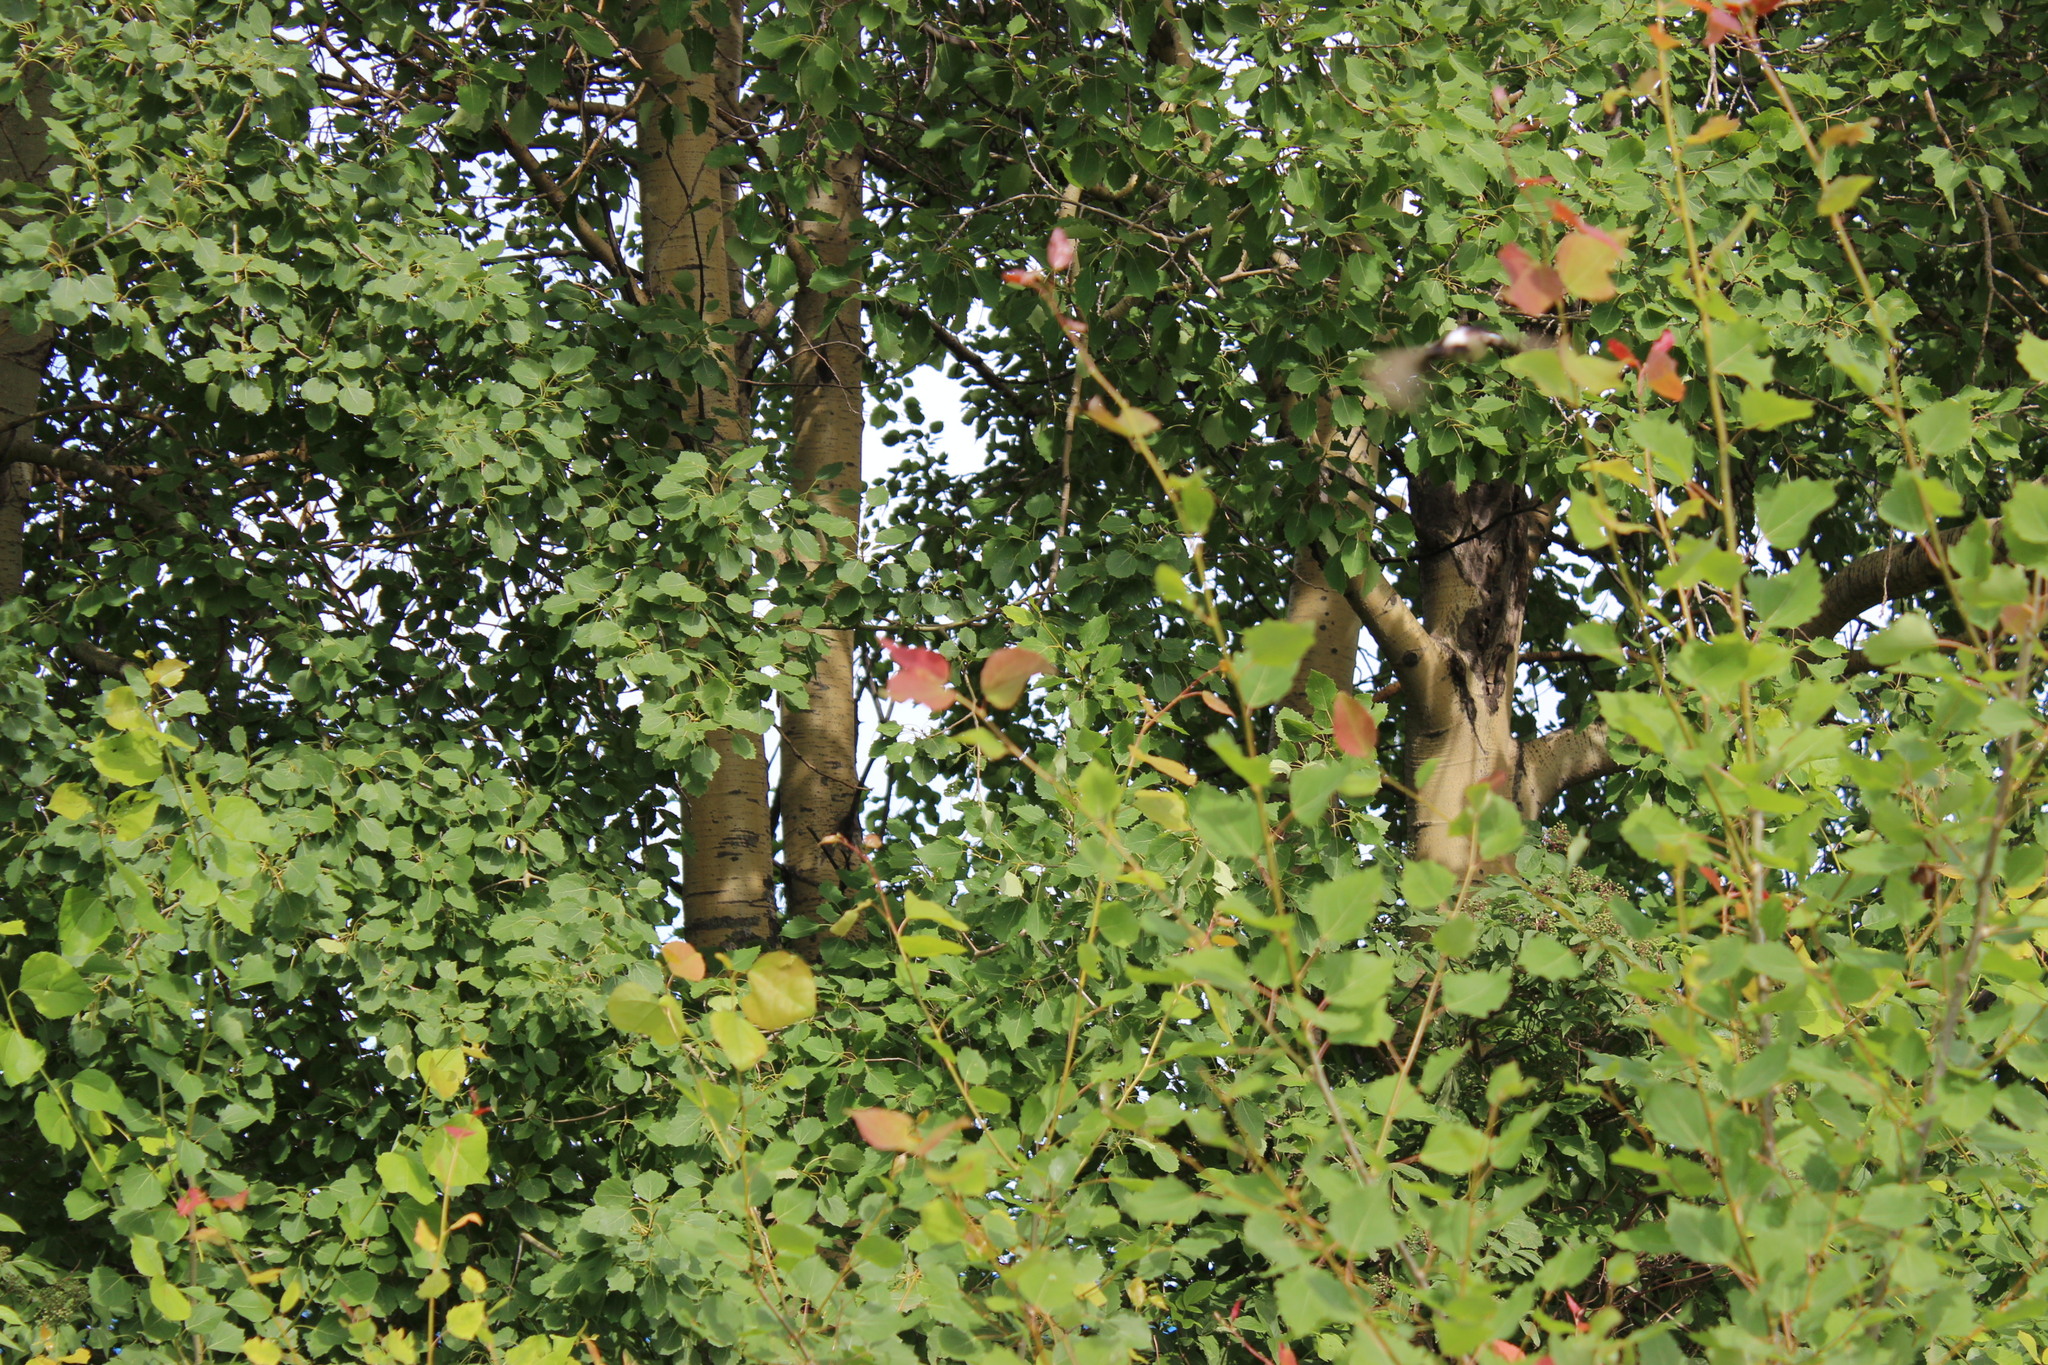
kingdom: Plantae
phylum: Tracheophyta
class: Magnoliopsida
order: Malpighiales
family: Salicaceae
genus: Populus
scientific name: Populus tremula
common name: European aspen
